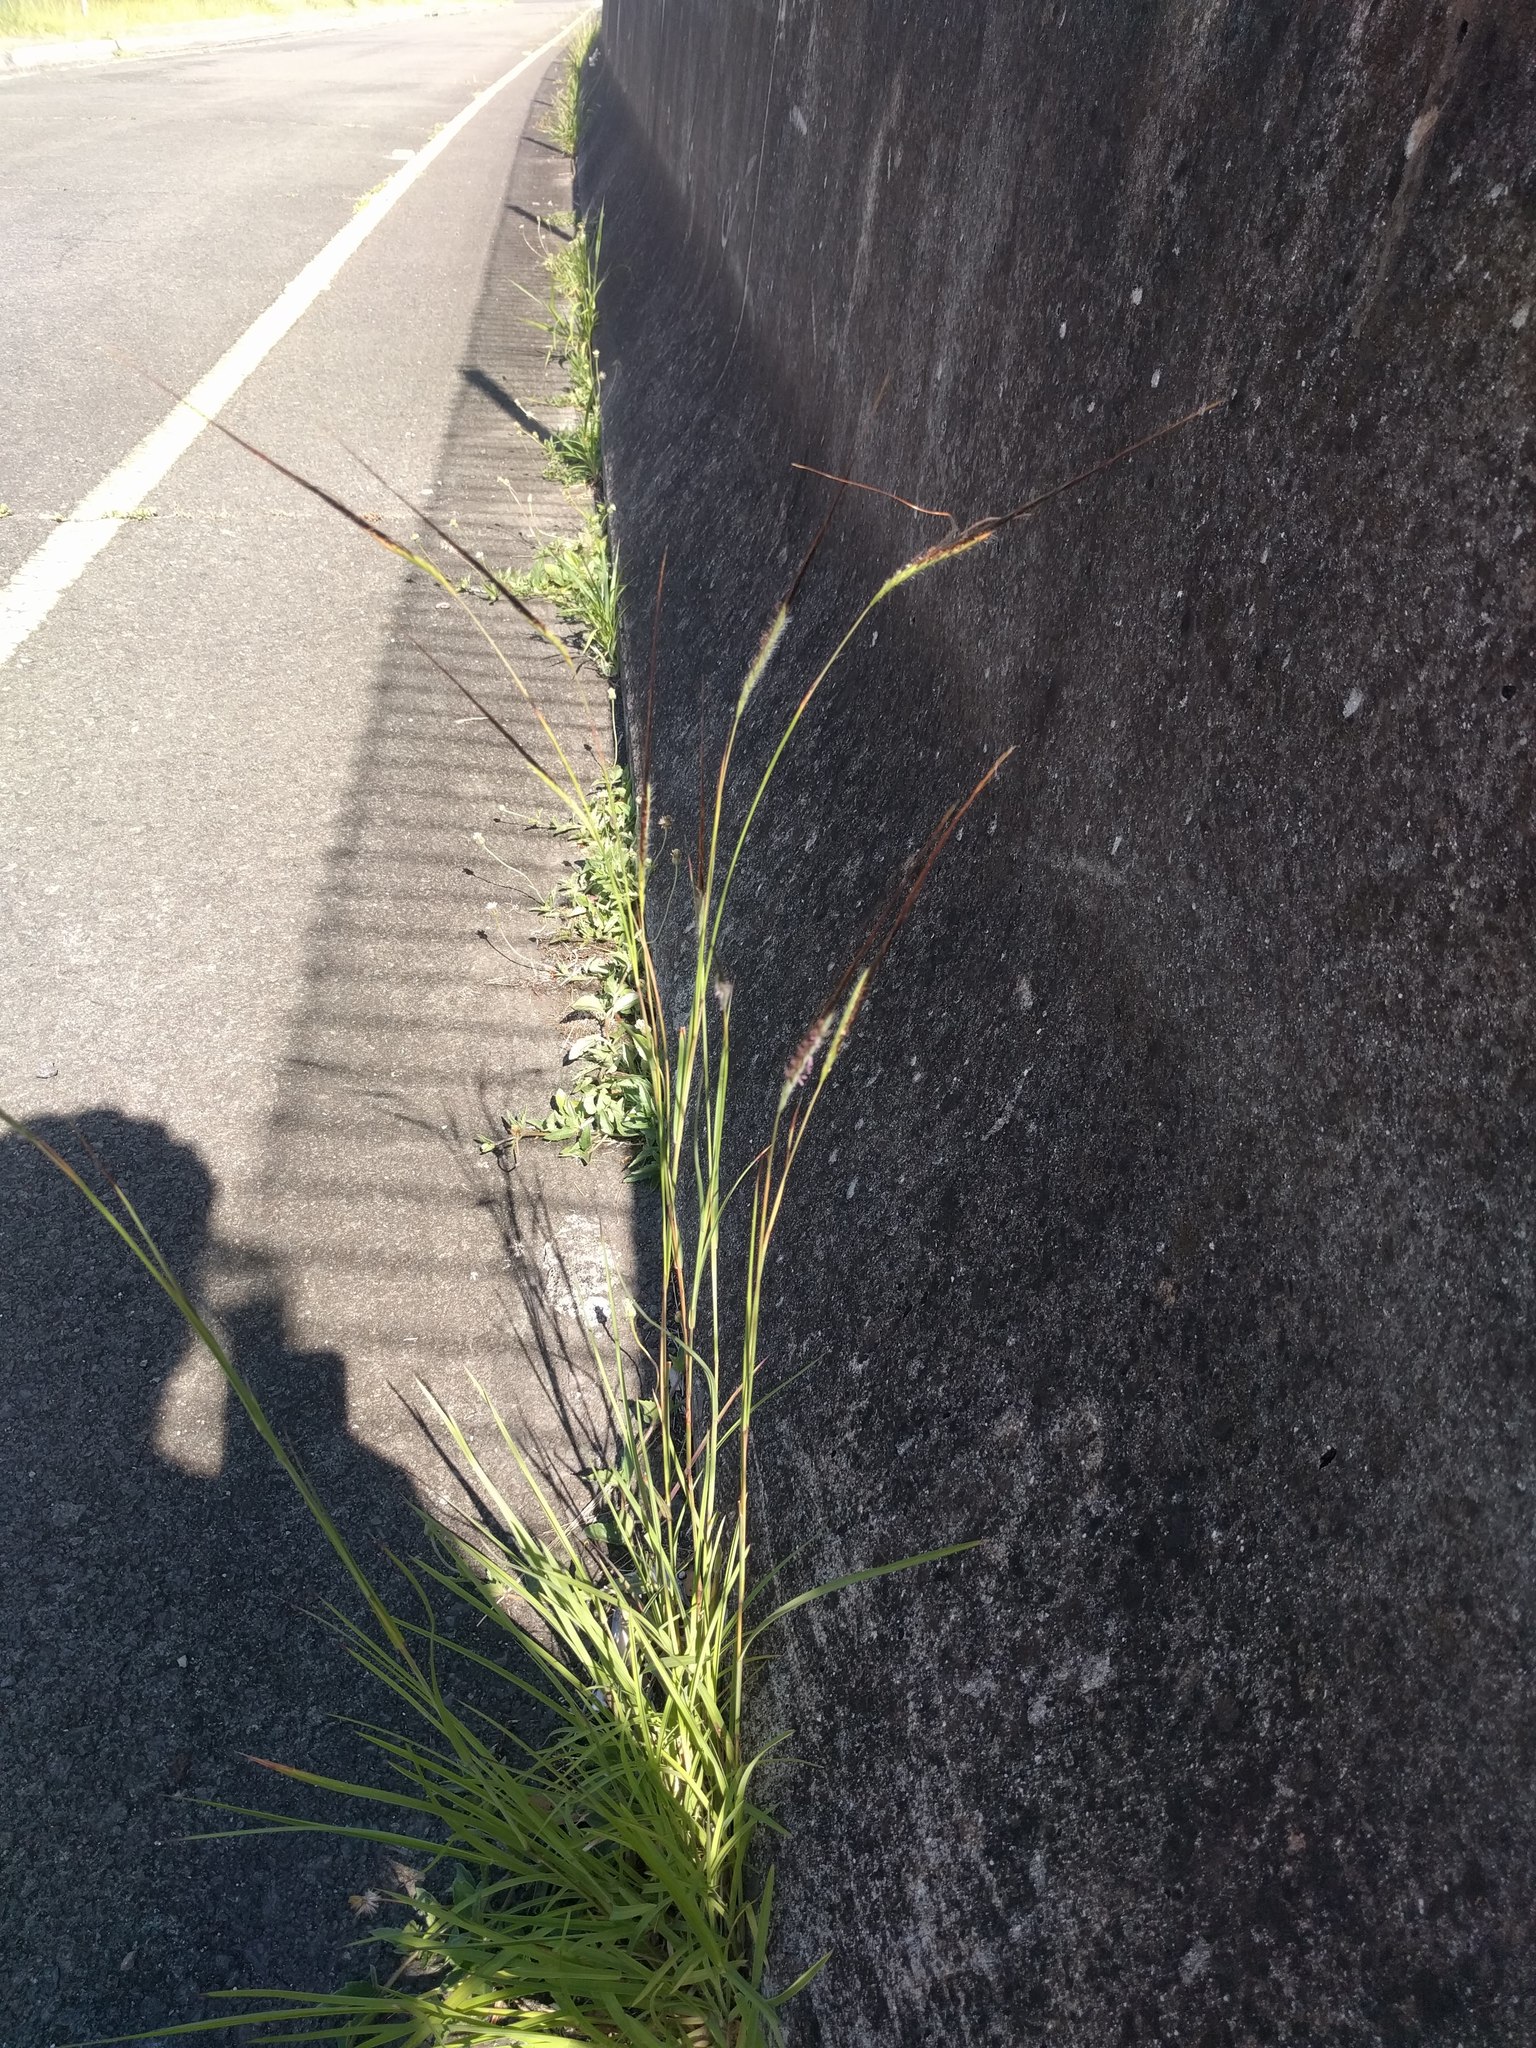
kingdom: Plantae
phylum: Tracheophyta
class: Liliopsida
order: Poales
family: Poaceae
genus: Heteropogon
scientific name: Heteropogon contortus
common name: Tanglehead
